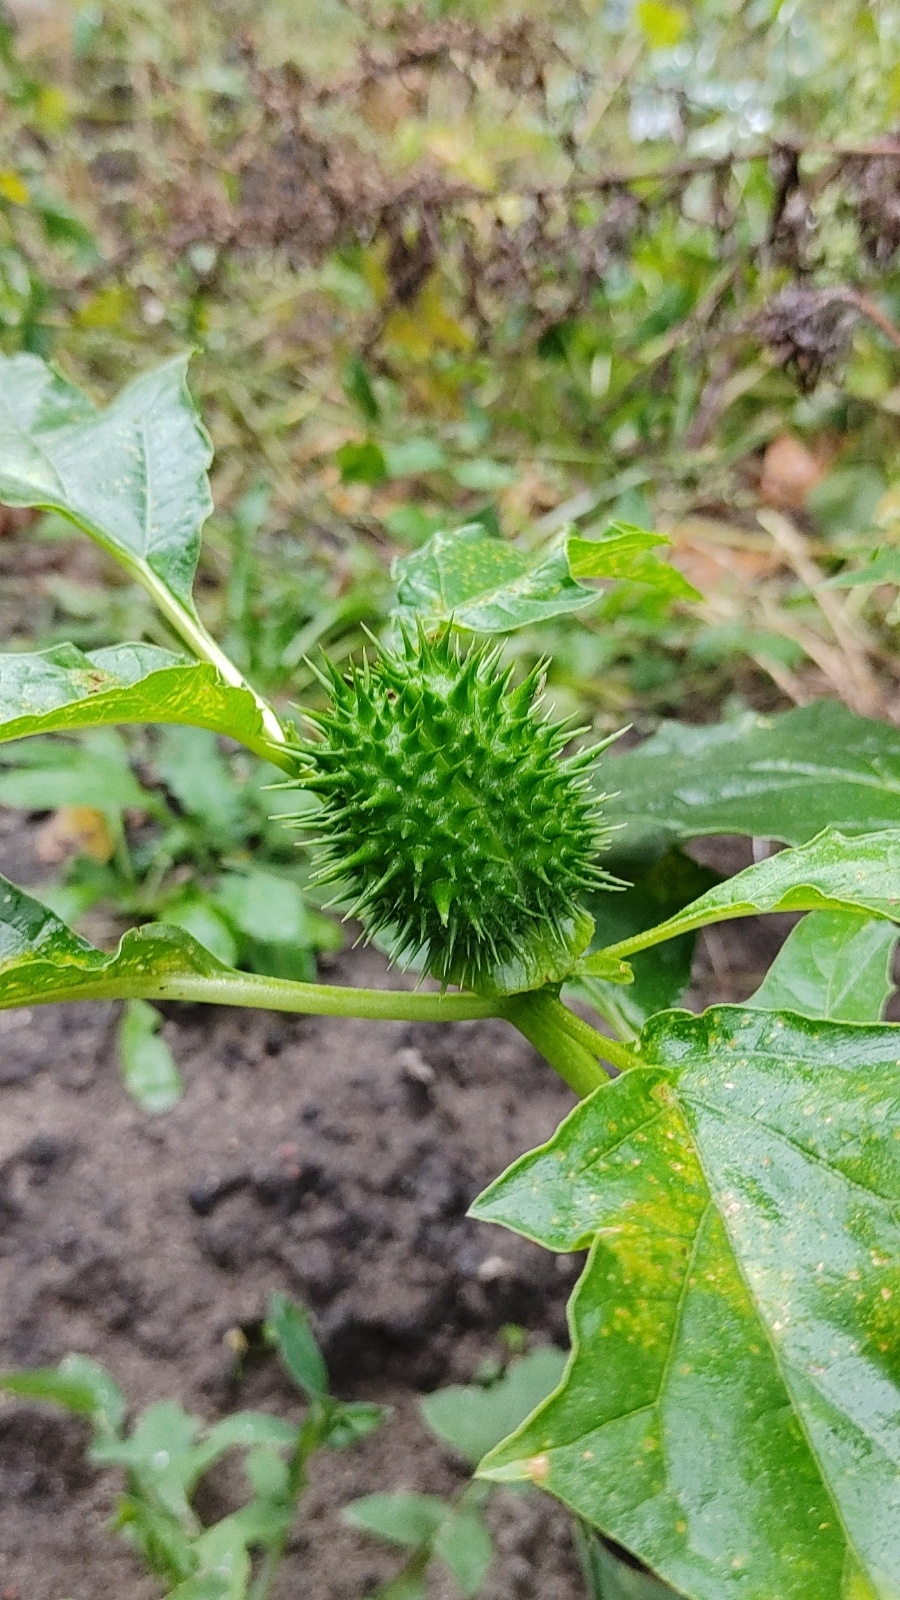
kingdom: Plantae
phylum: Tracheophyta
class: Magnoliopsida
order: Solanales
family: Solanaceae
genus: Datura
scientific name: Datura stramonium
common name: Thorn-apple
